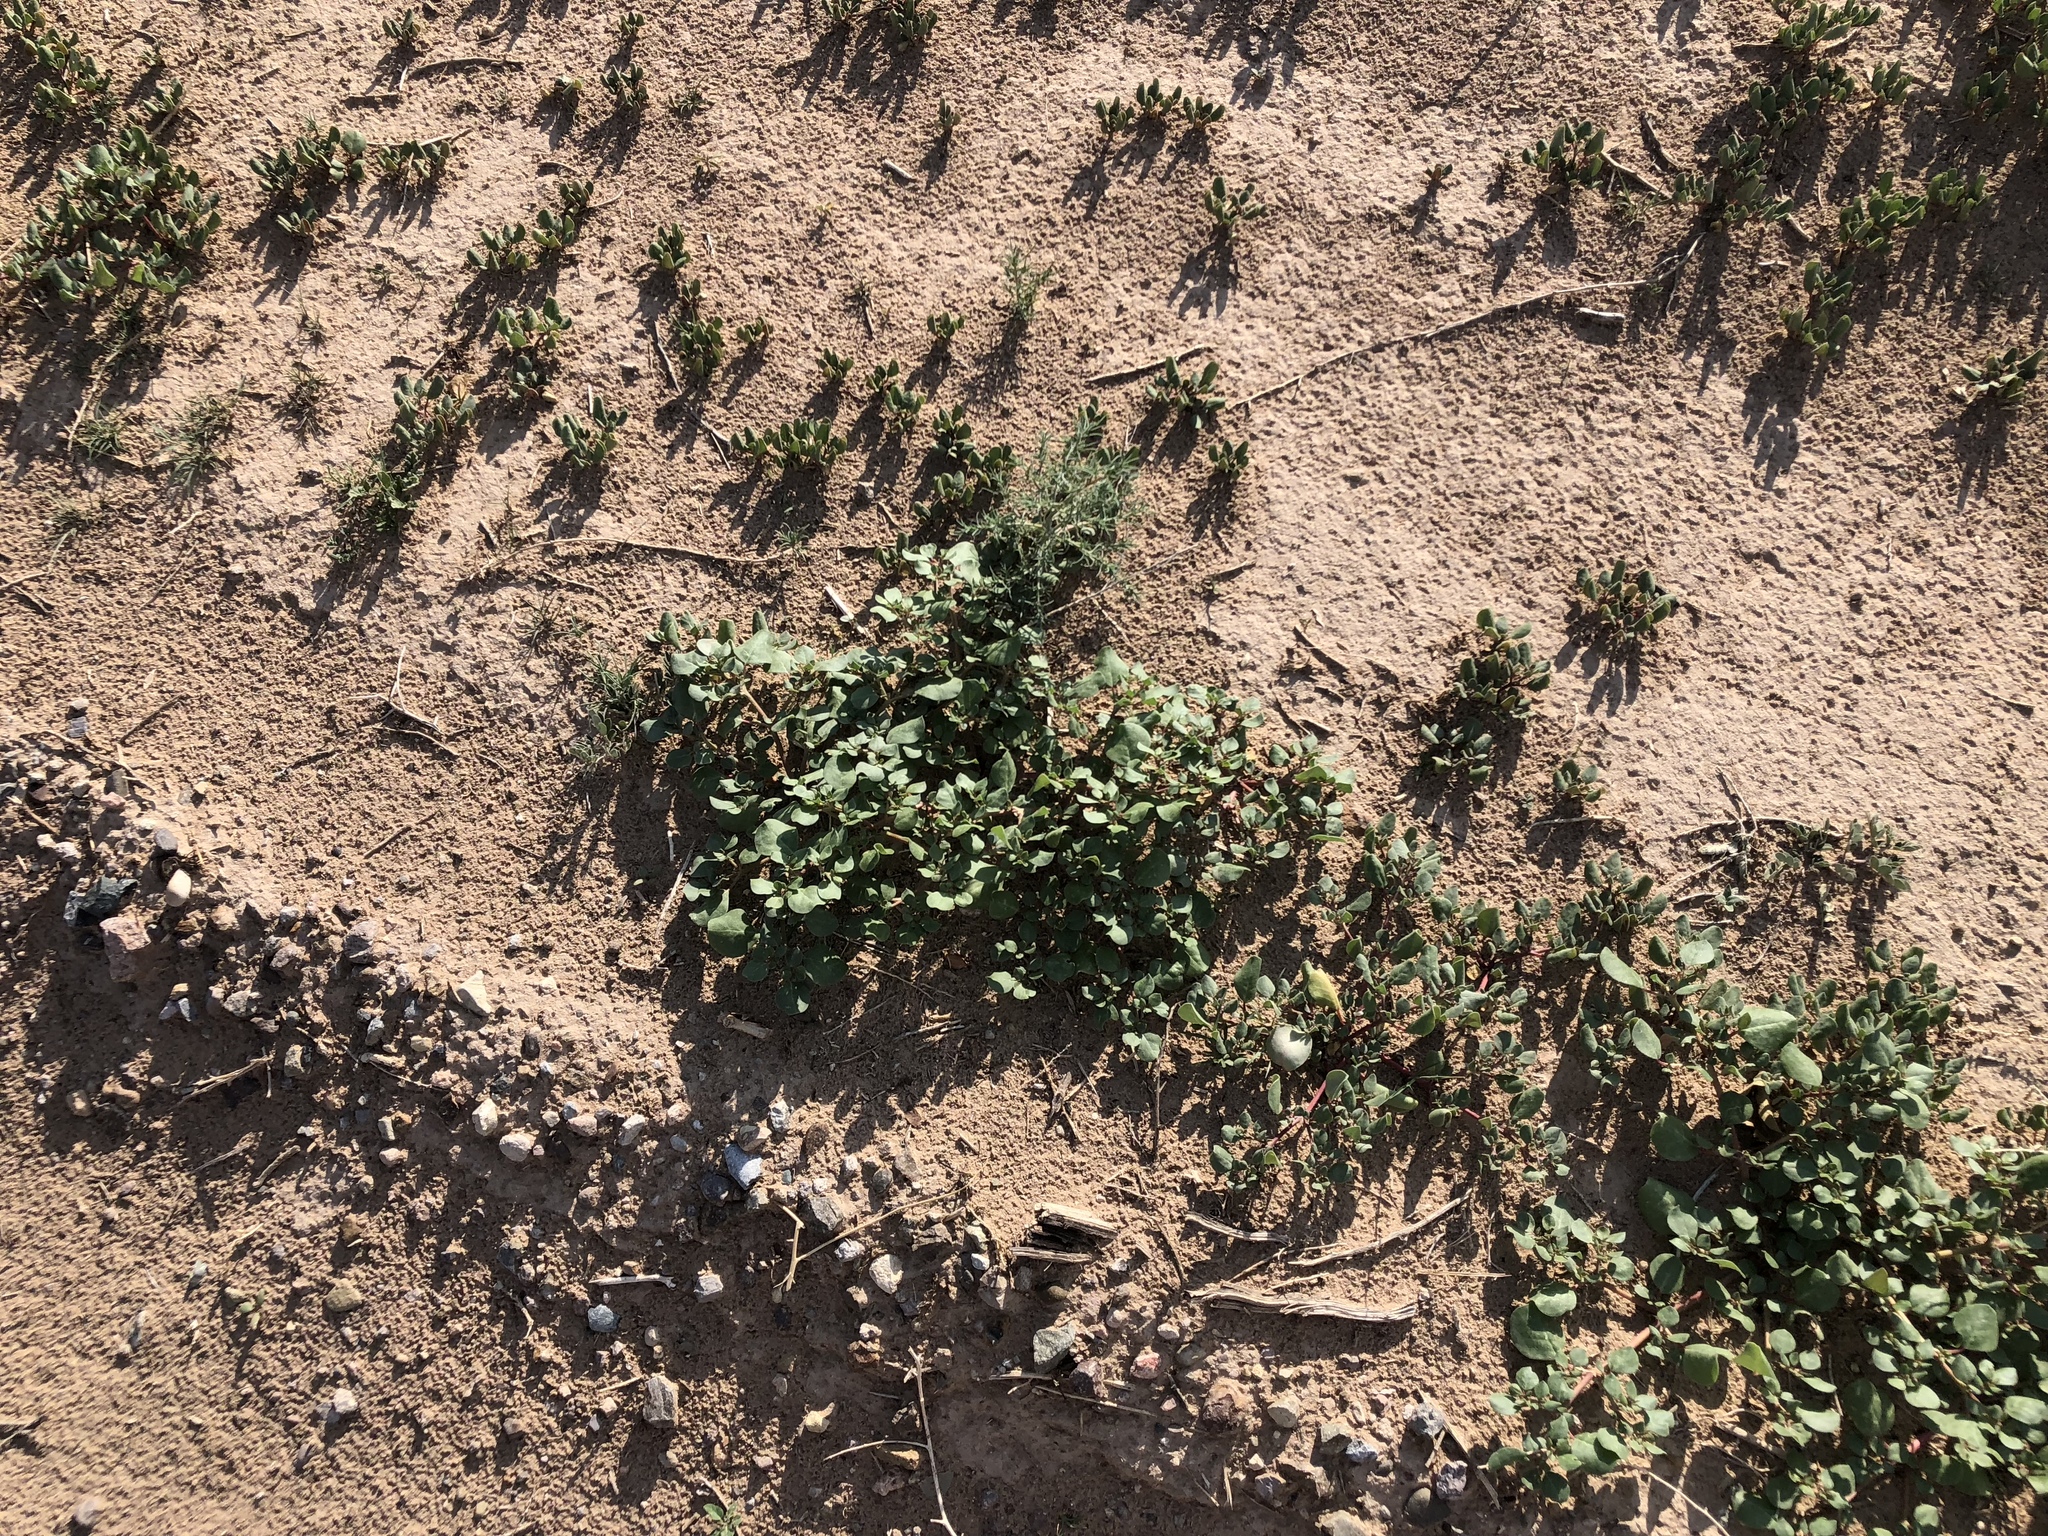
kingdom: Plantae
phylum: Tracheophyta
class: Magnoliopsida
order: Caryophyllales
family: Aizoaceae
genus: Trianthema
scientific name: Trianthema portulacastrum
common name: Desert horsepurslane
